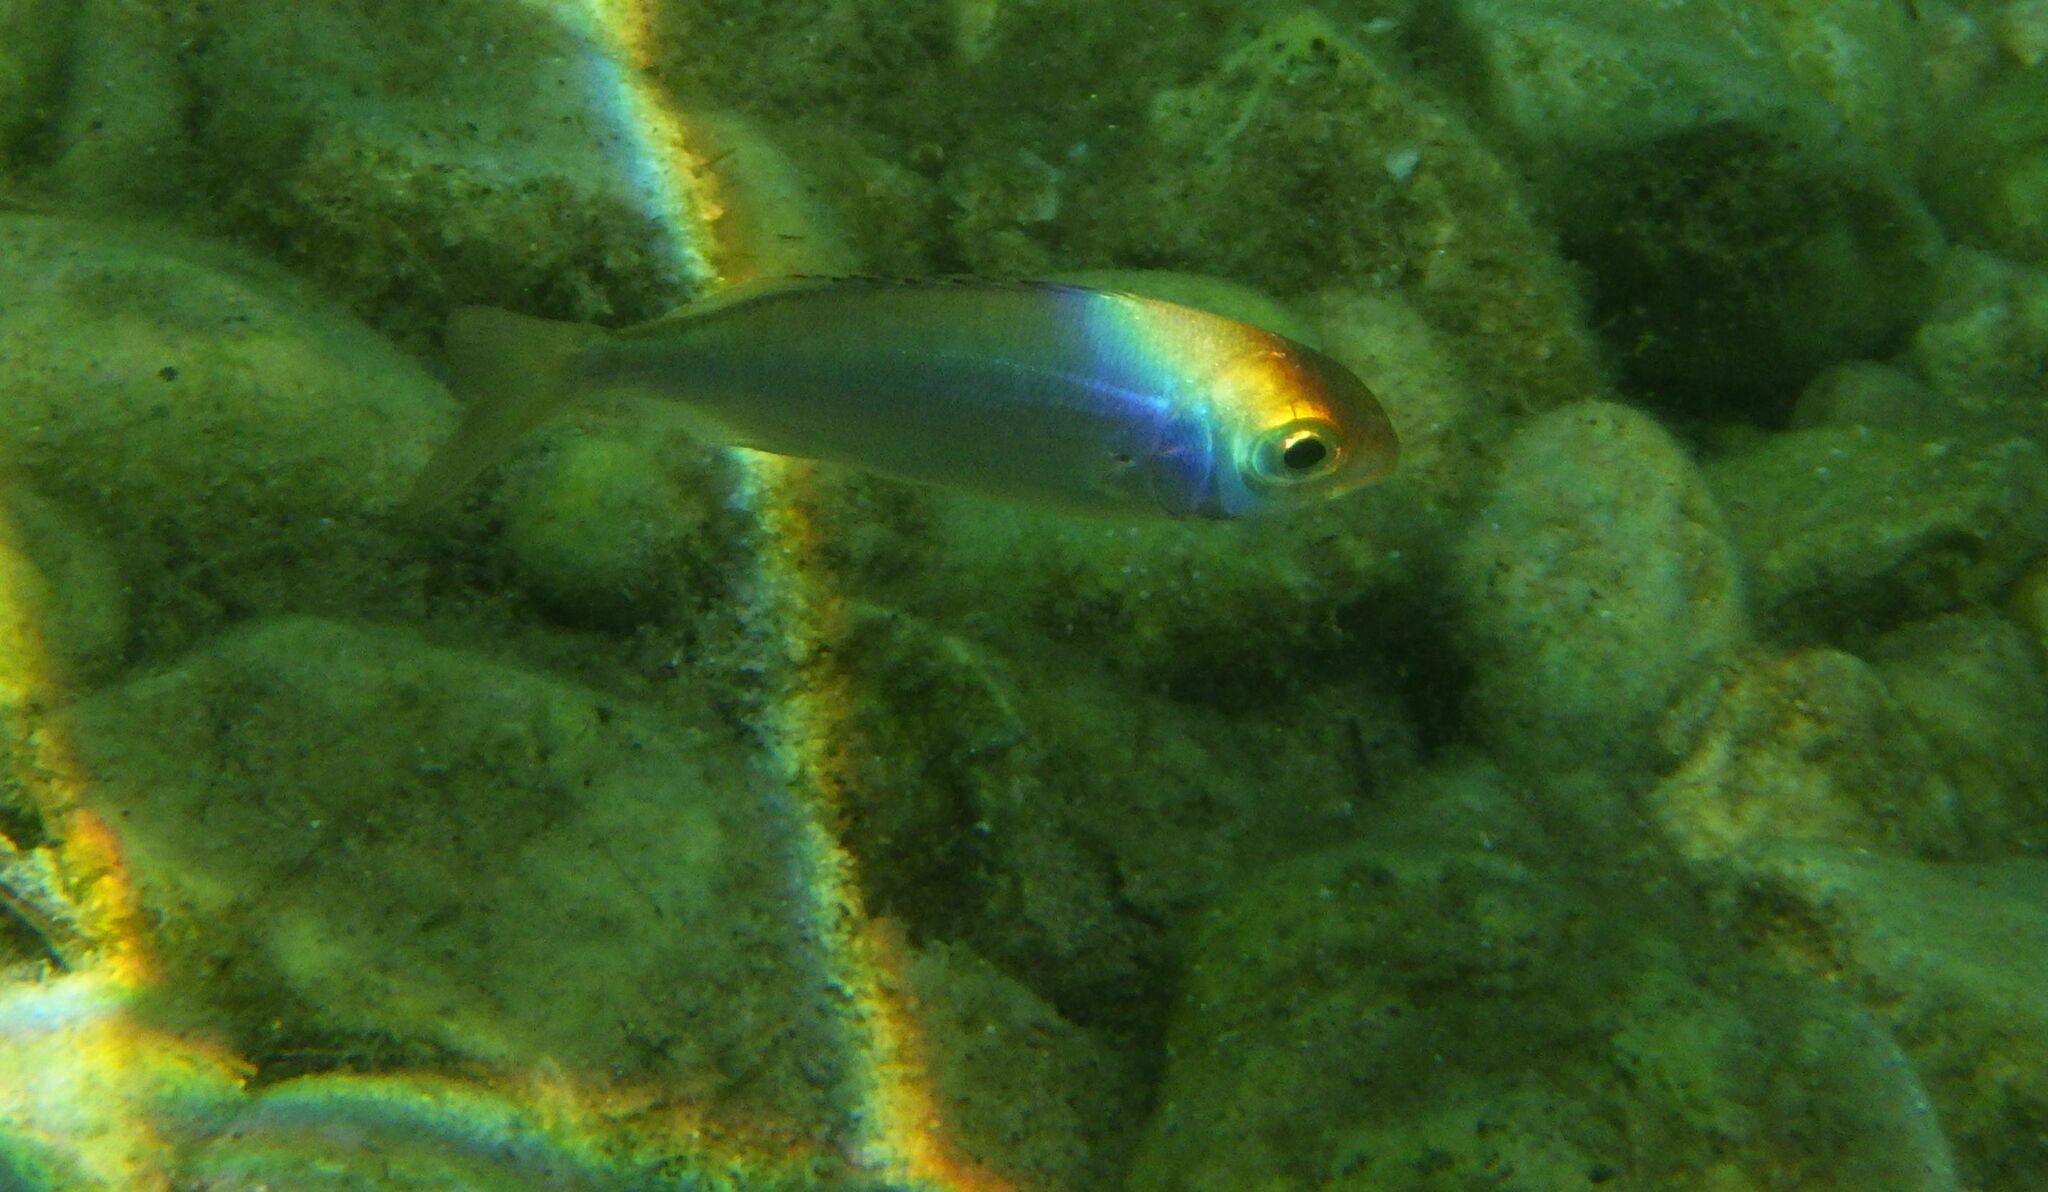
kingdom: Animalia
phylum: Chordata
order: Perciformes
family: Sparidae
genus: Pagellus
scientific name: Pagellus acarne
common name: Axillary sea-bream
